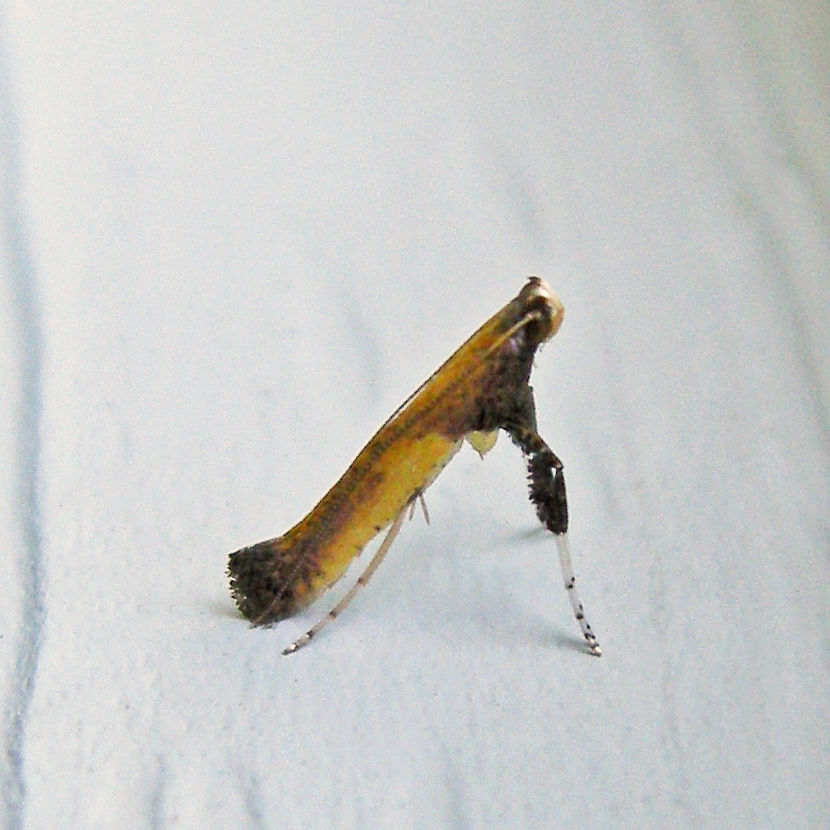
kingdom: Animalia
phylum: Arthropoda
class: Insecta
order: Lepidoptera
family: Gracillariidae
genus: Caloptilia
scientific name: Caloptilia azaleella
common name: Azalea leafminer
